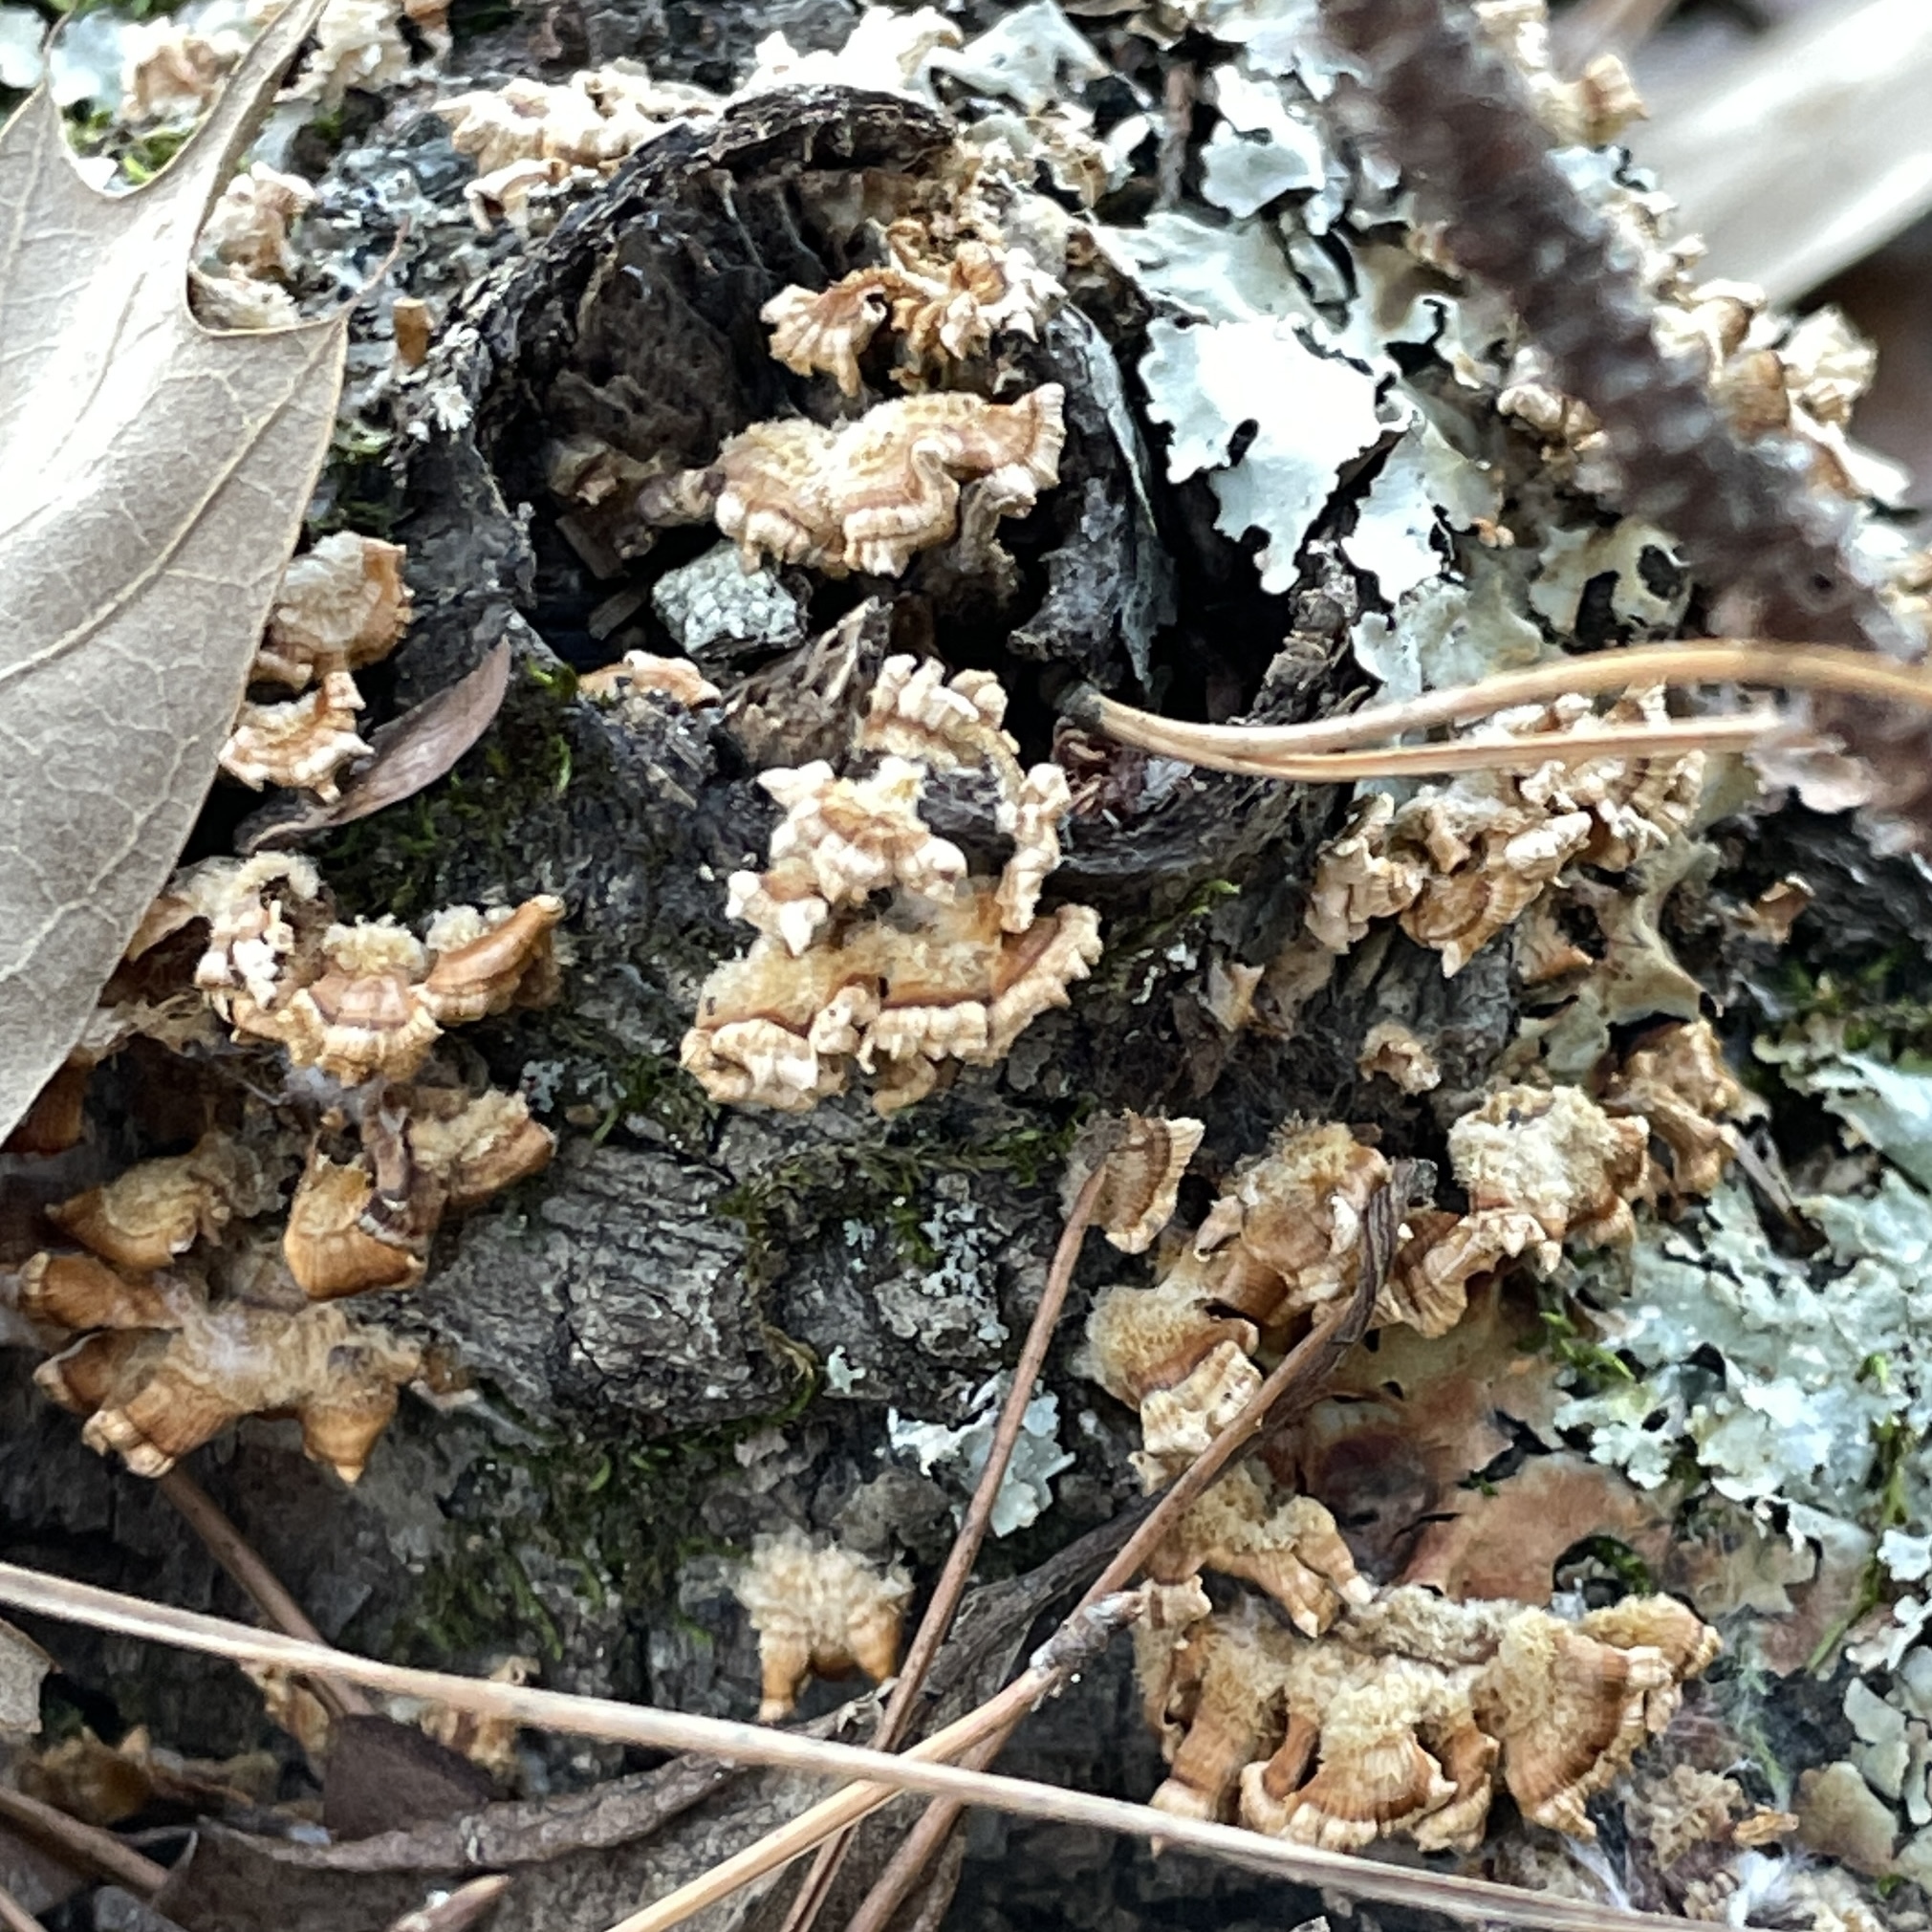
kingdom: Fungi
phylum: Basidiomycota
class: Agaricomycetes
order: Russulales
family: Stereaceae
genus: Stereum
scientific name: Stereum complicatum
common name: Crowded parchment
